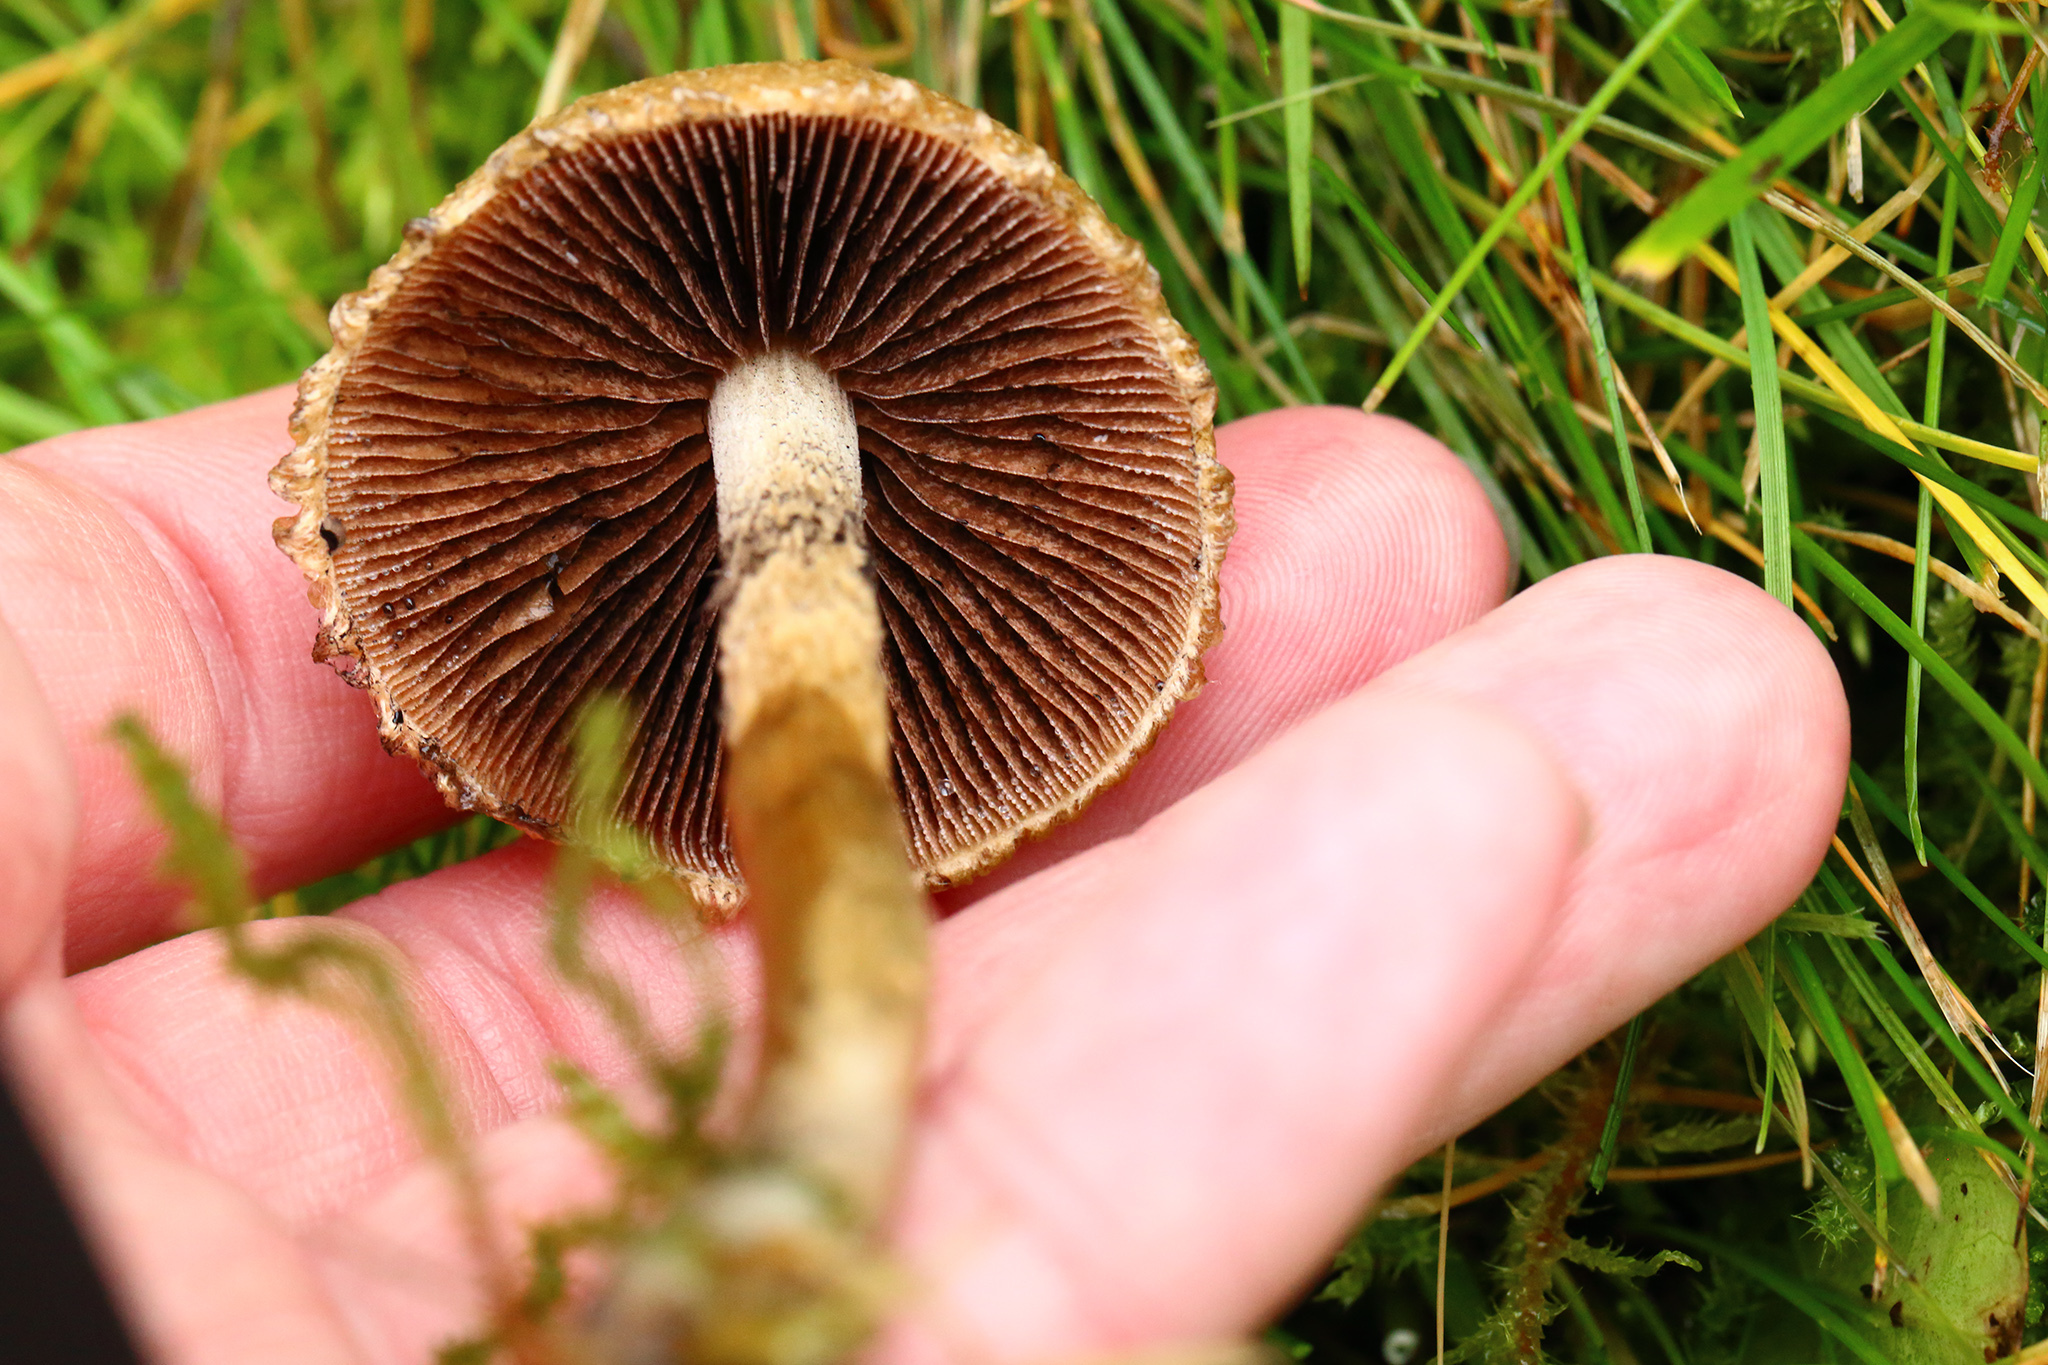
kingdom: Fungi
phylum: Basidiomycota
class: Agaricomycetes
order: Agaricales
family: Psathyrellaceae
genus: Lacrymaria
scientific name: Lacrymaria lacrymabunda
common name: Weeping widow
